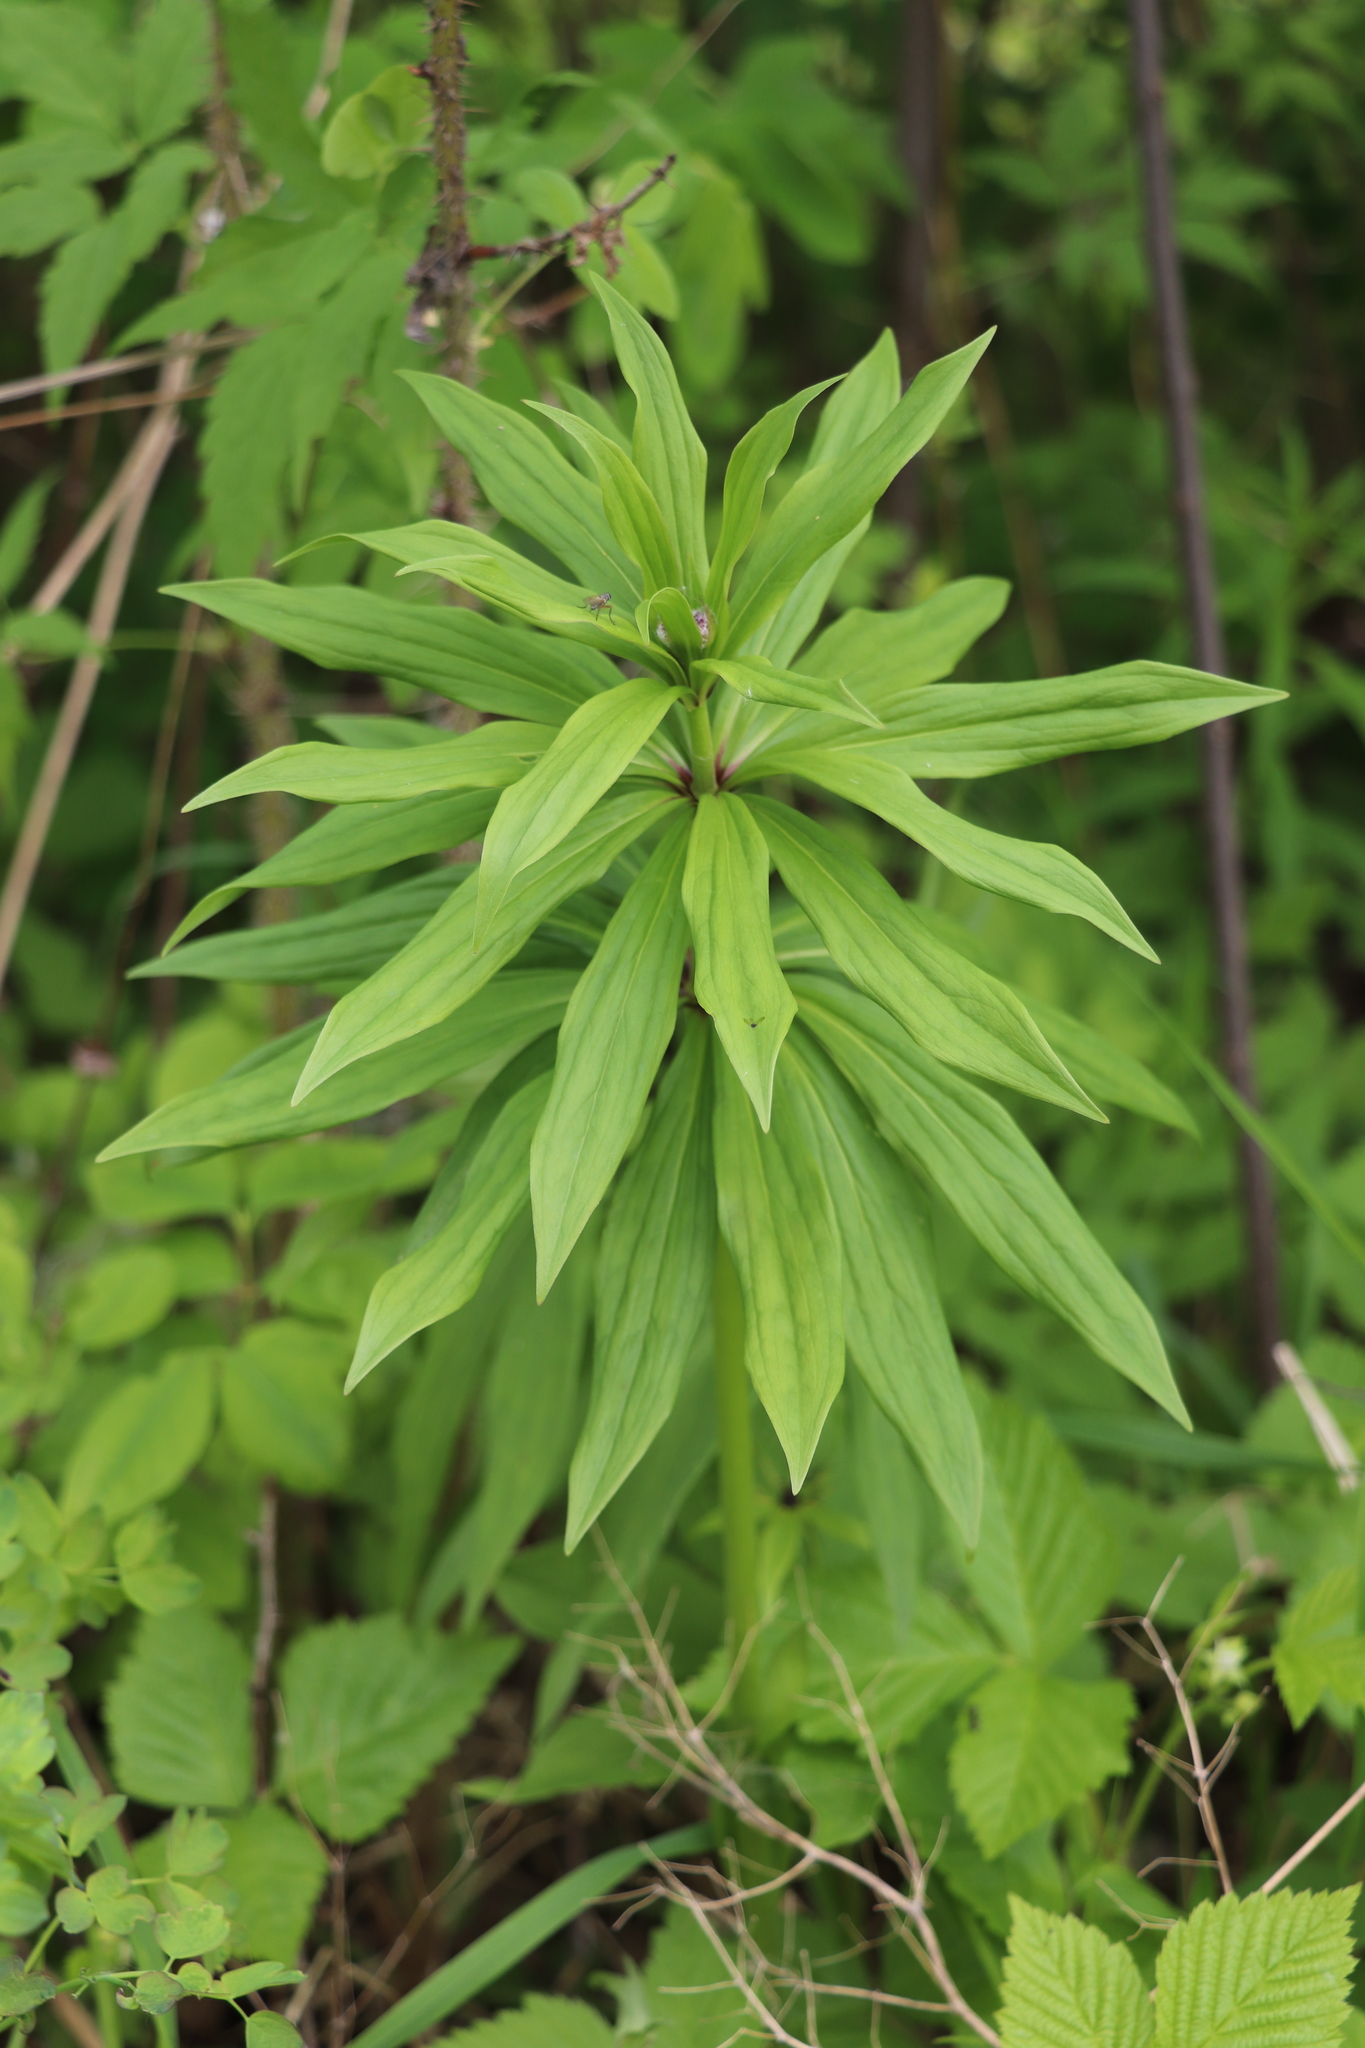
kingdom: Plantae
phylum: Tracheophyta
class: Liliopsida
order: Liliales
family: Liliaceae
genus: Lilium
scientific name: Lilium martagon
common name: Martagon lily
